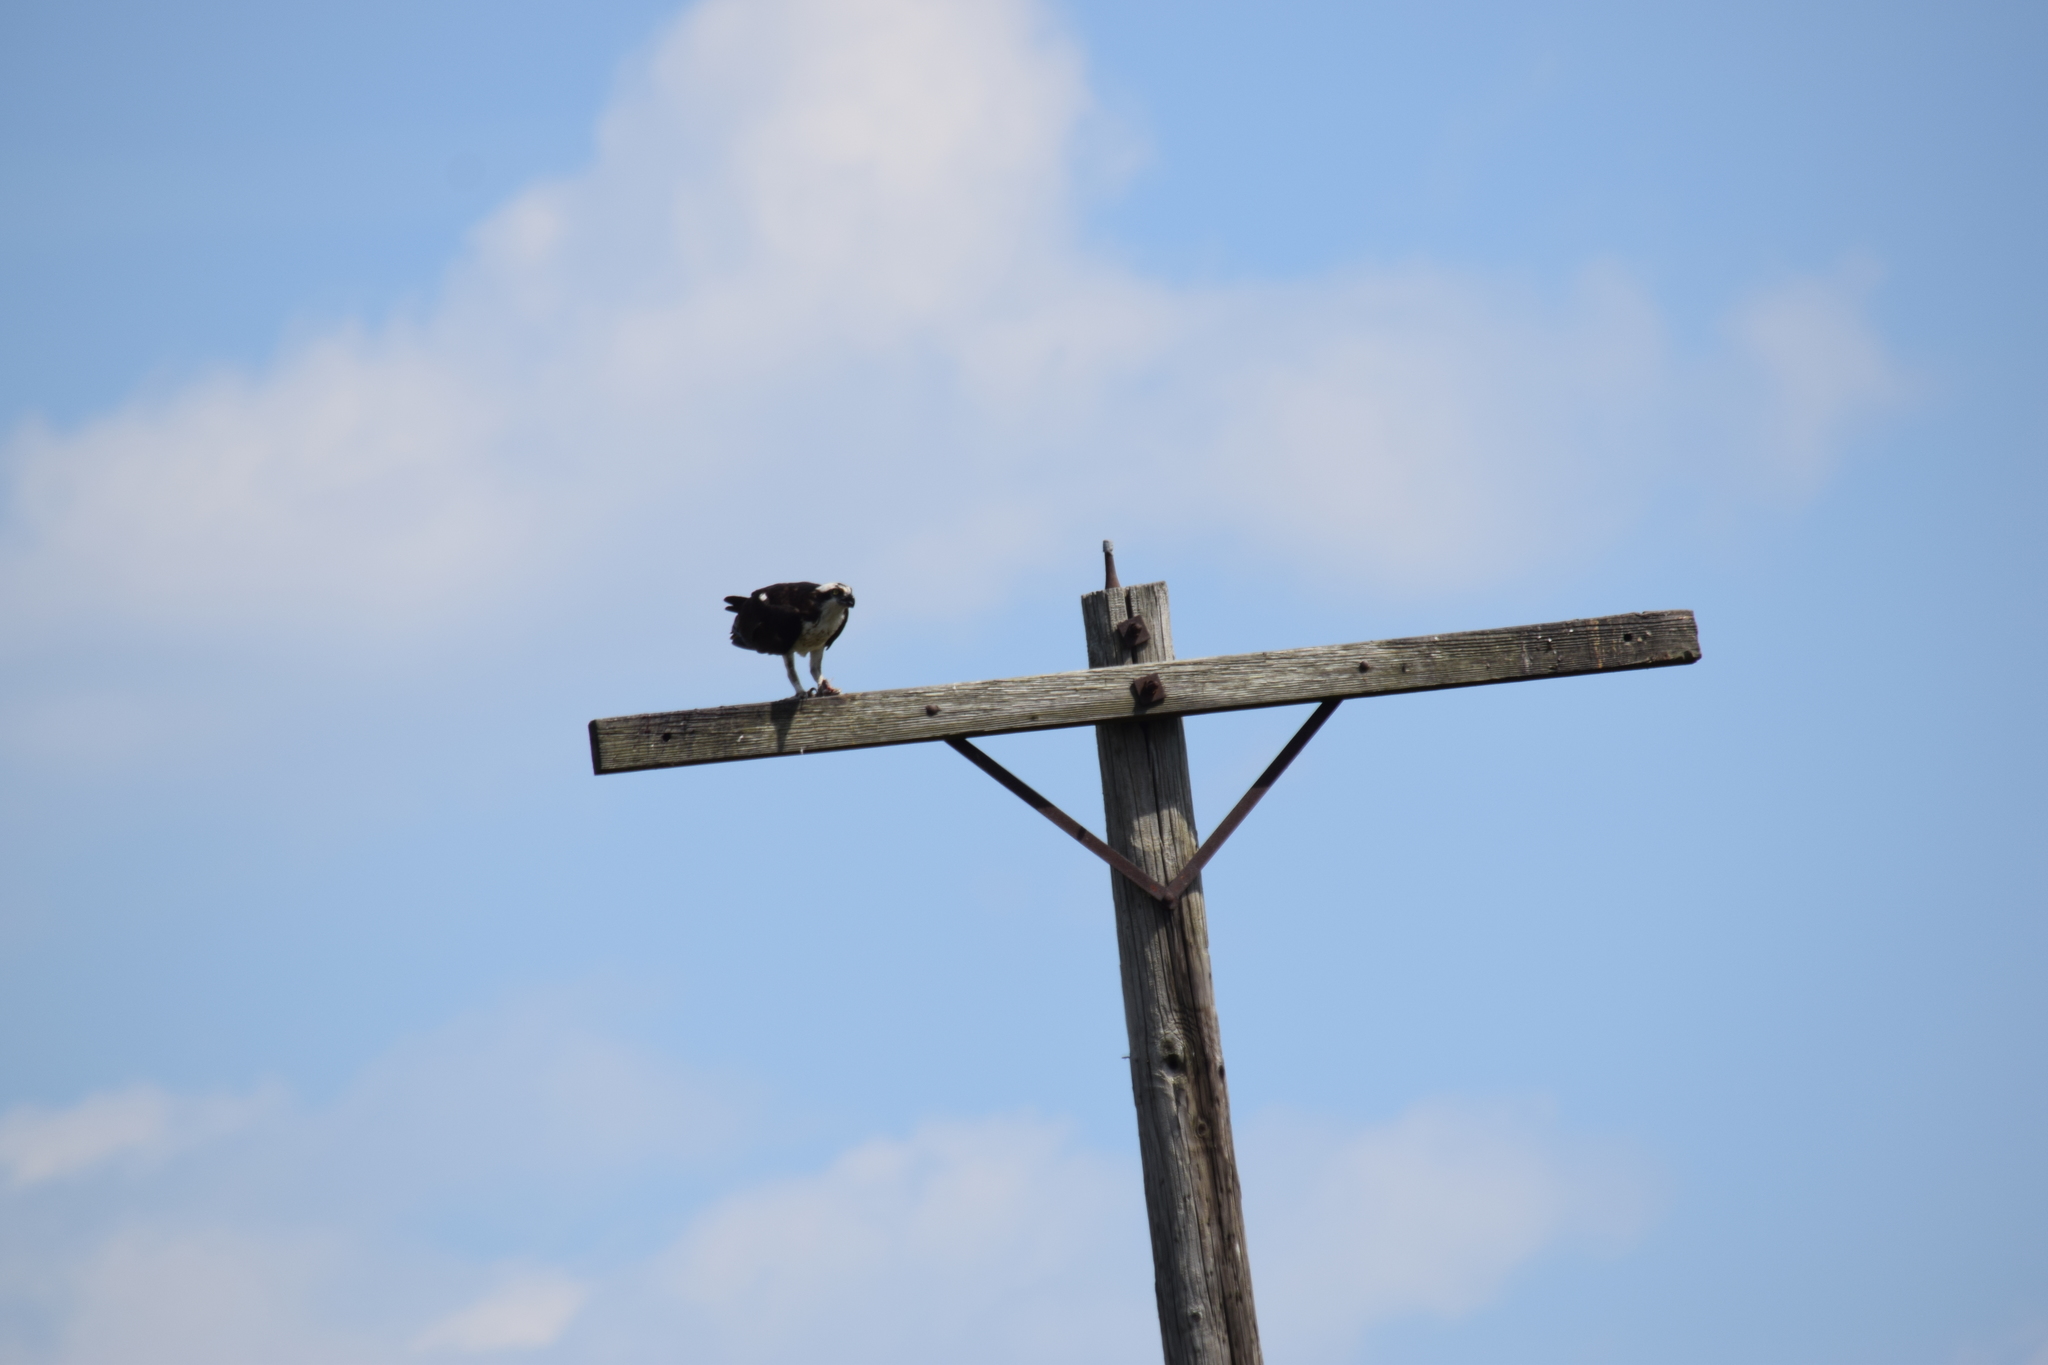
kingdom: Animalia
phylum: Chordata
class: Aves
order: Accipitriformes
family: Pandionidae
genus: Pandion
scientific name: Pandion haliaetus
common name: Osprey
